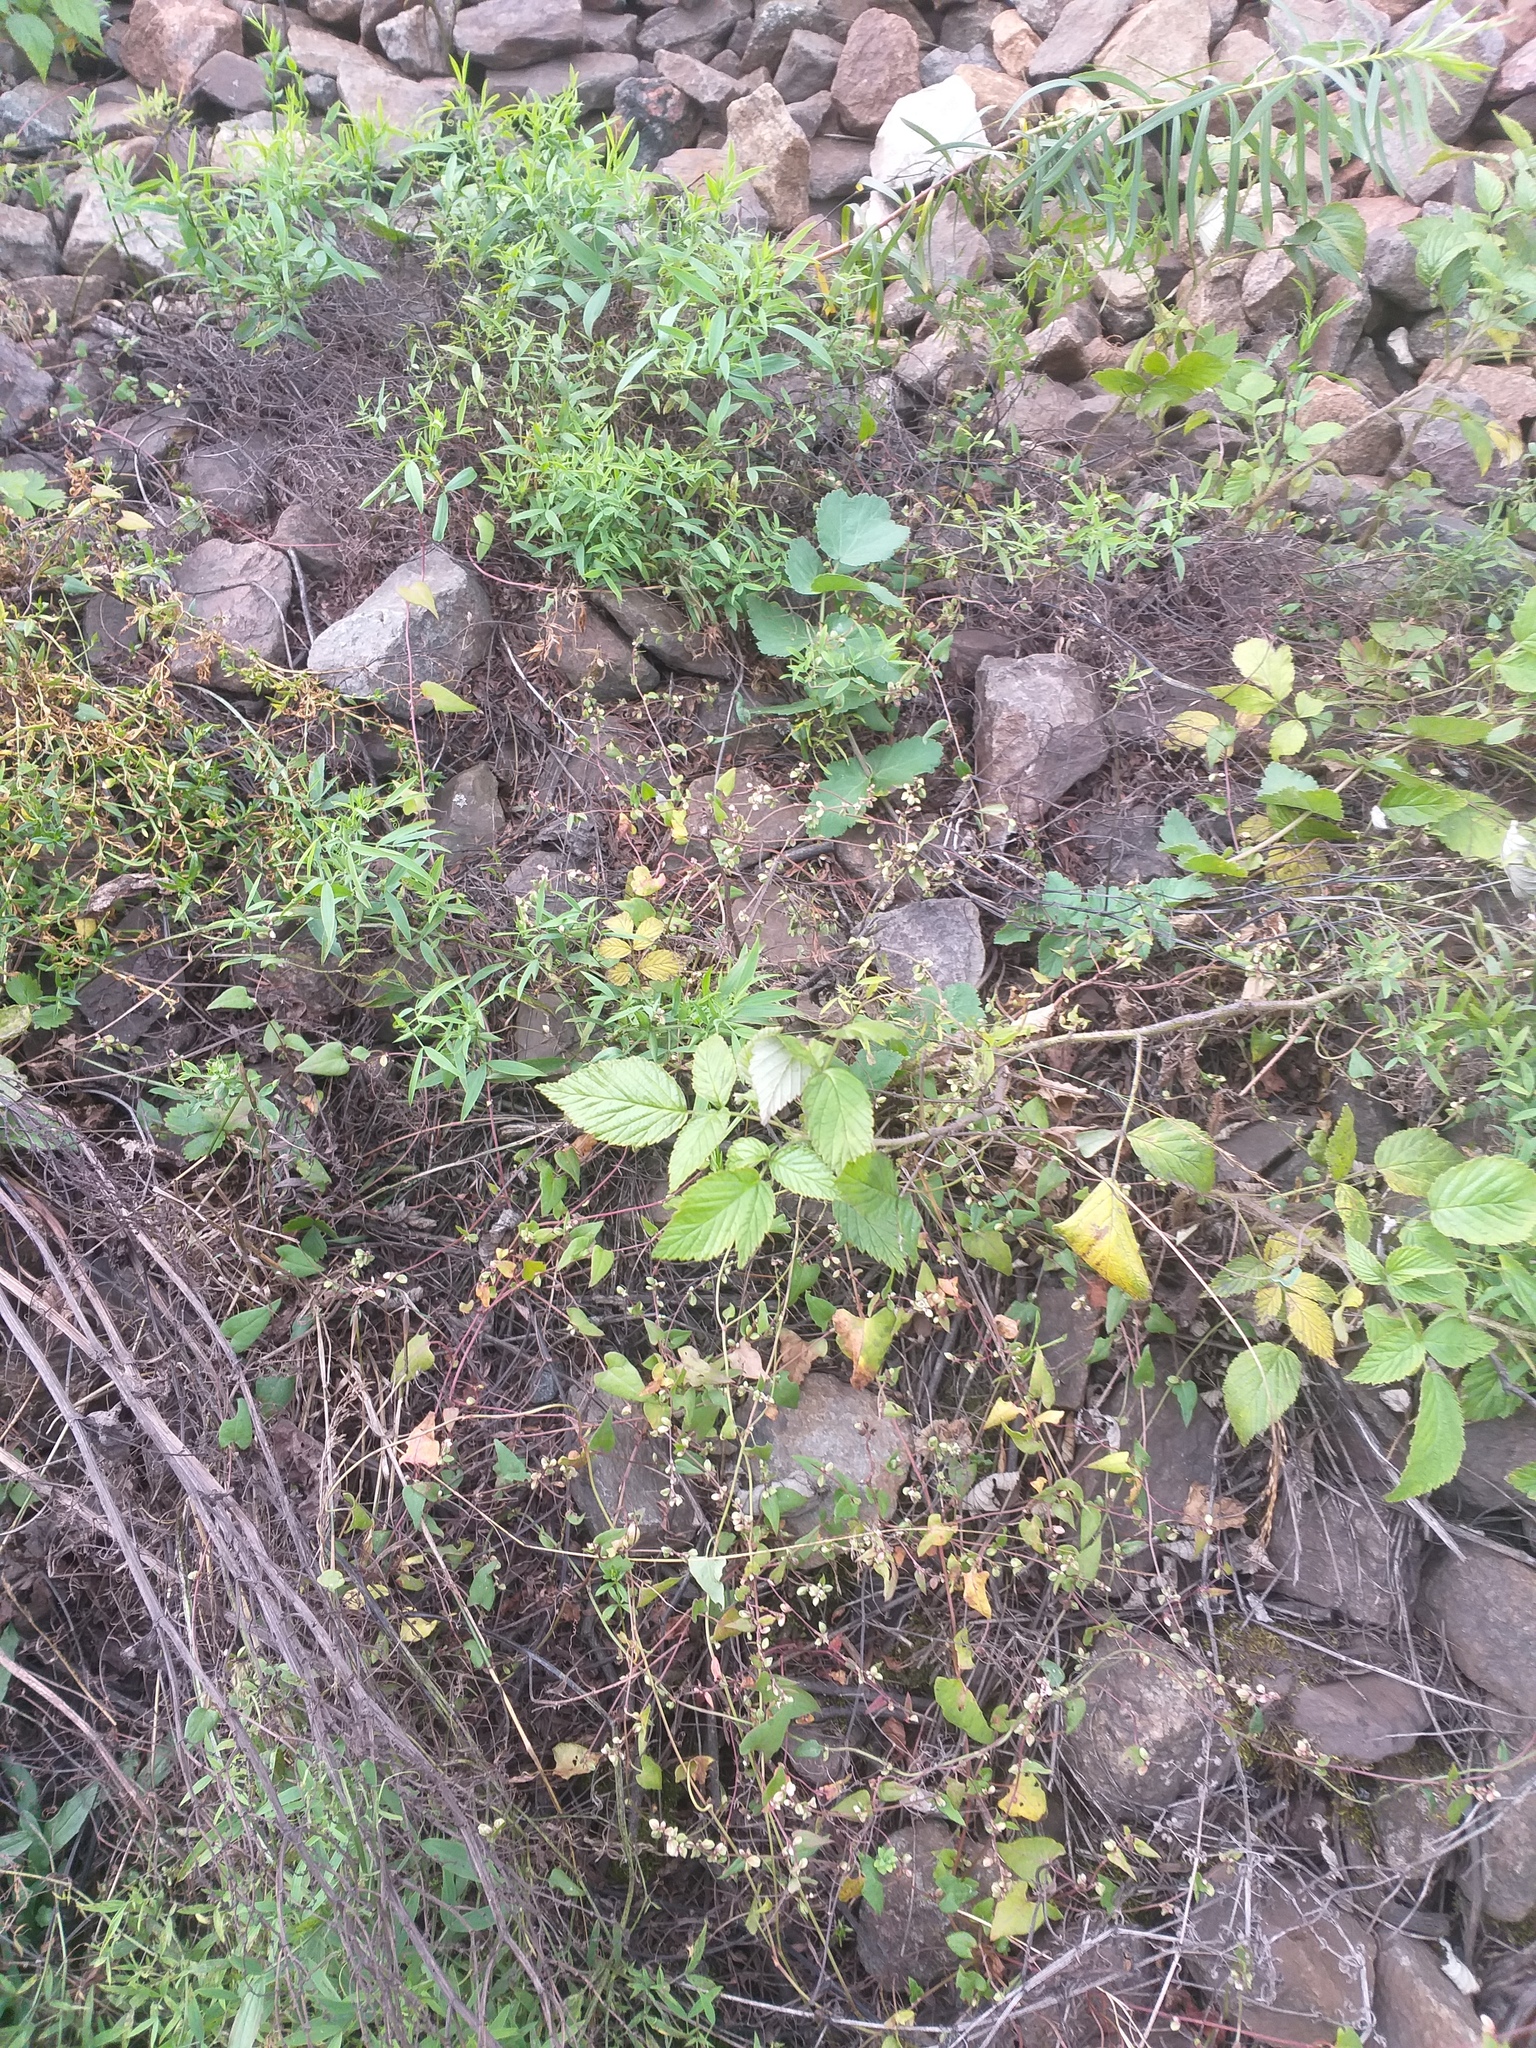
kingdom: Plantae
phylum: Tracheophyta
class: Magnoliopsida
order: Rosales
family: Rosaceae
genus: Rubus
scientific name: Rubus idaeus
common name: Raspberry
